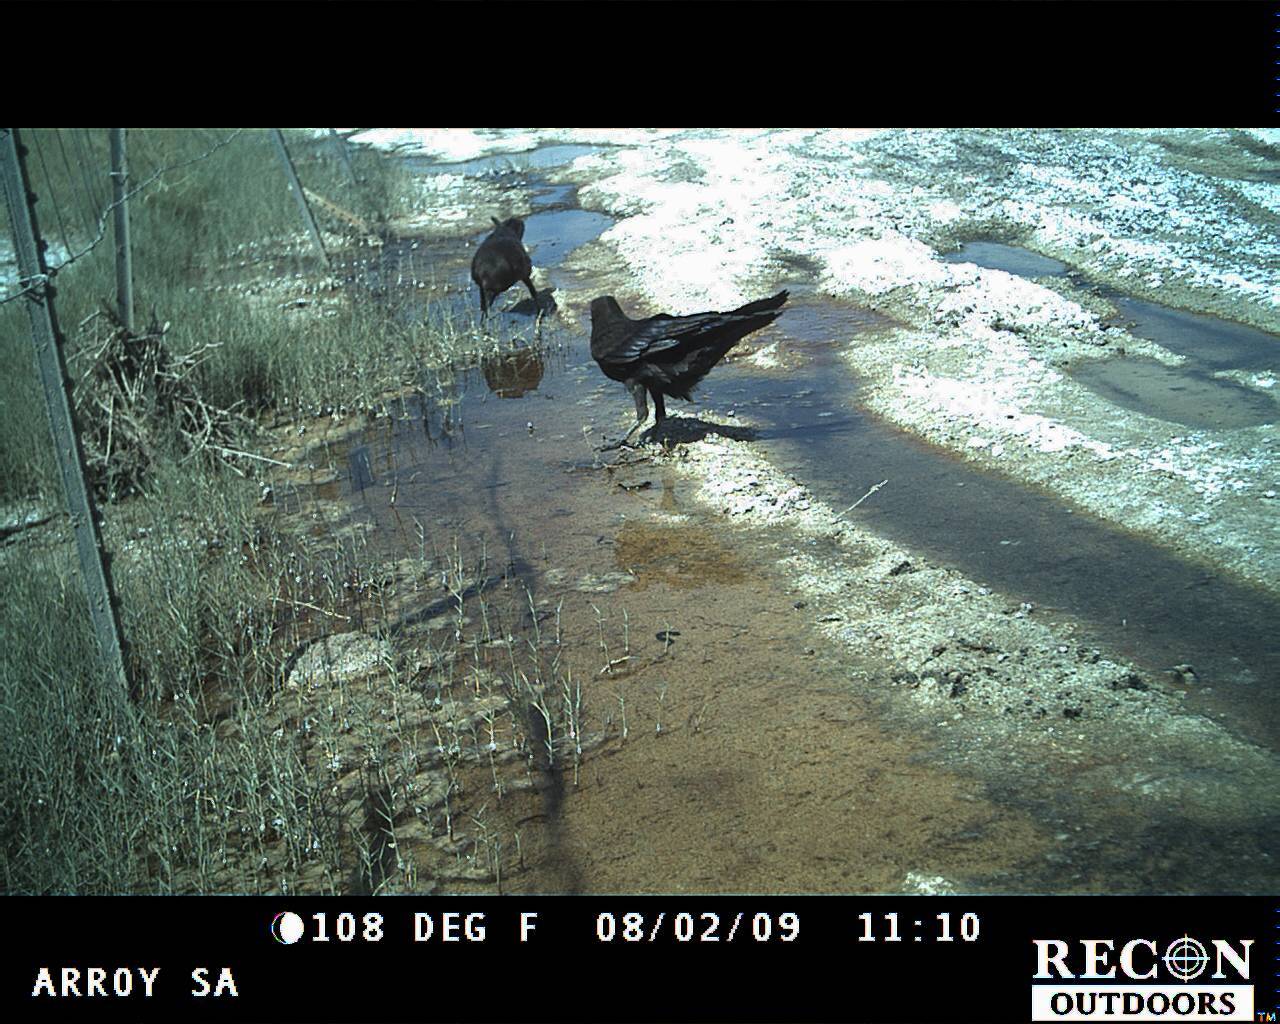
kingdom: Animalia
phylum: Chordata
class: Aves
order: Passeriformes
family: Corvidae
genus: Corvus
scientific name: Corvus corax
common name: Common raven
